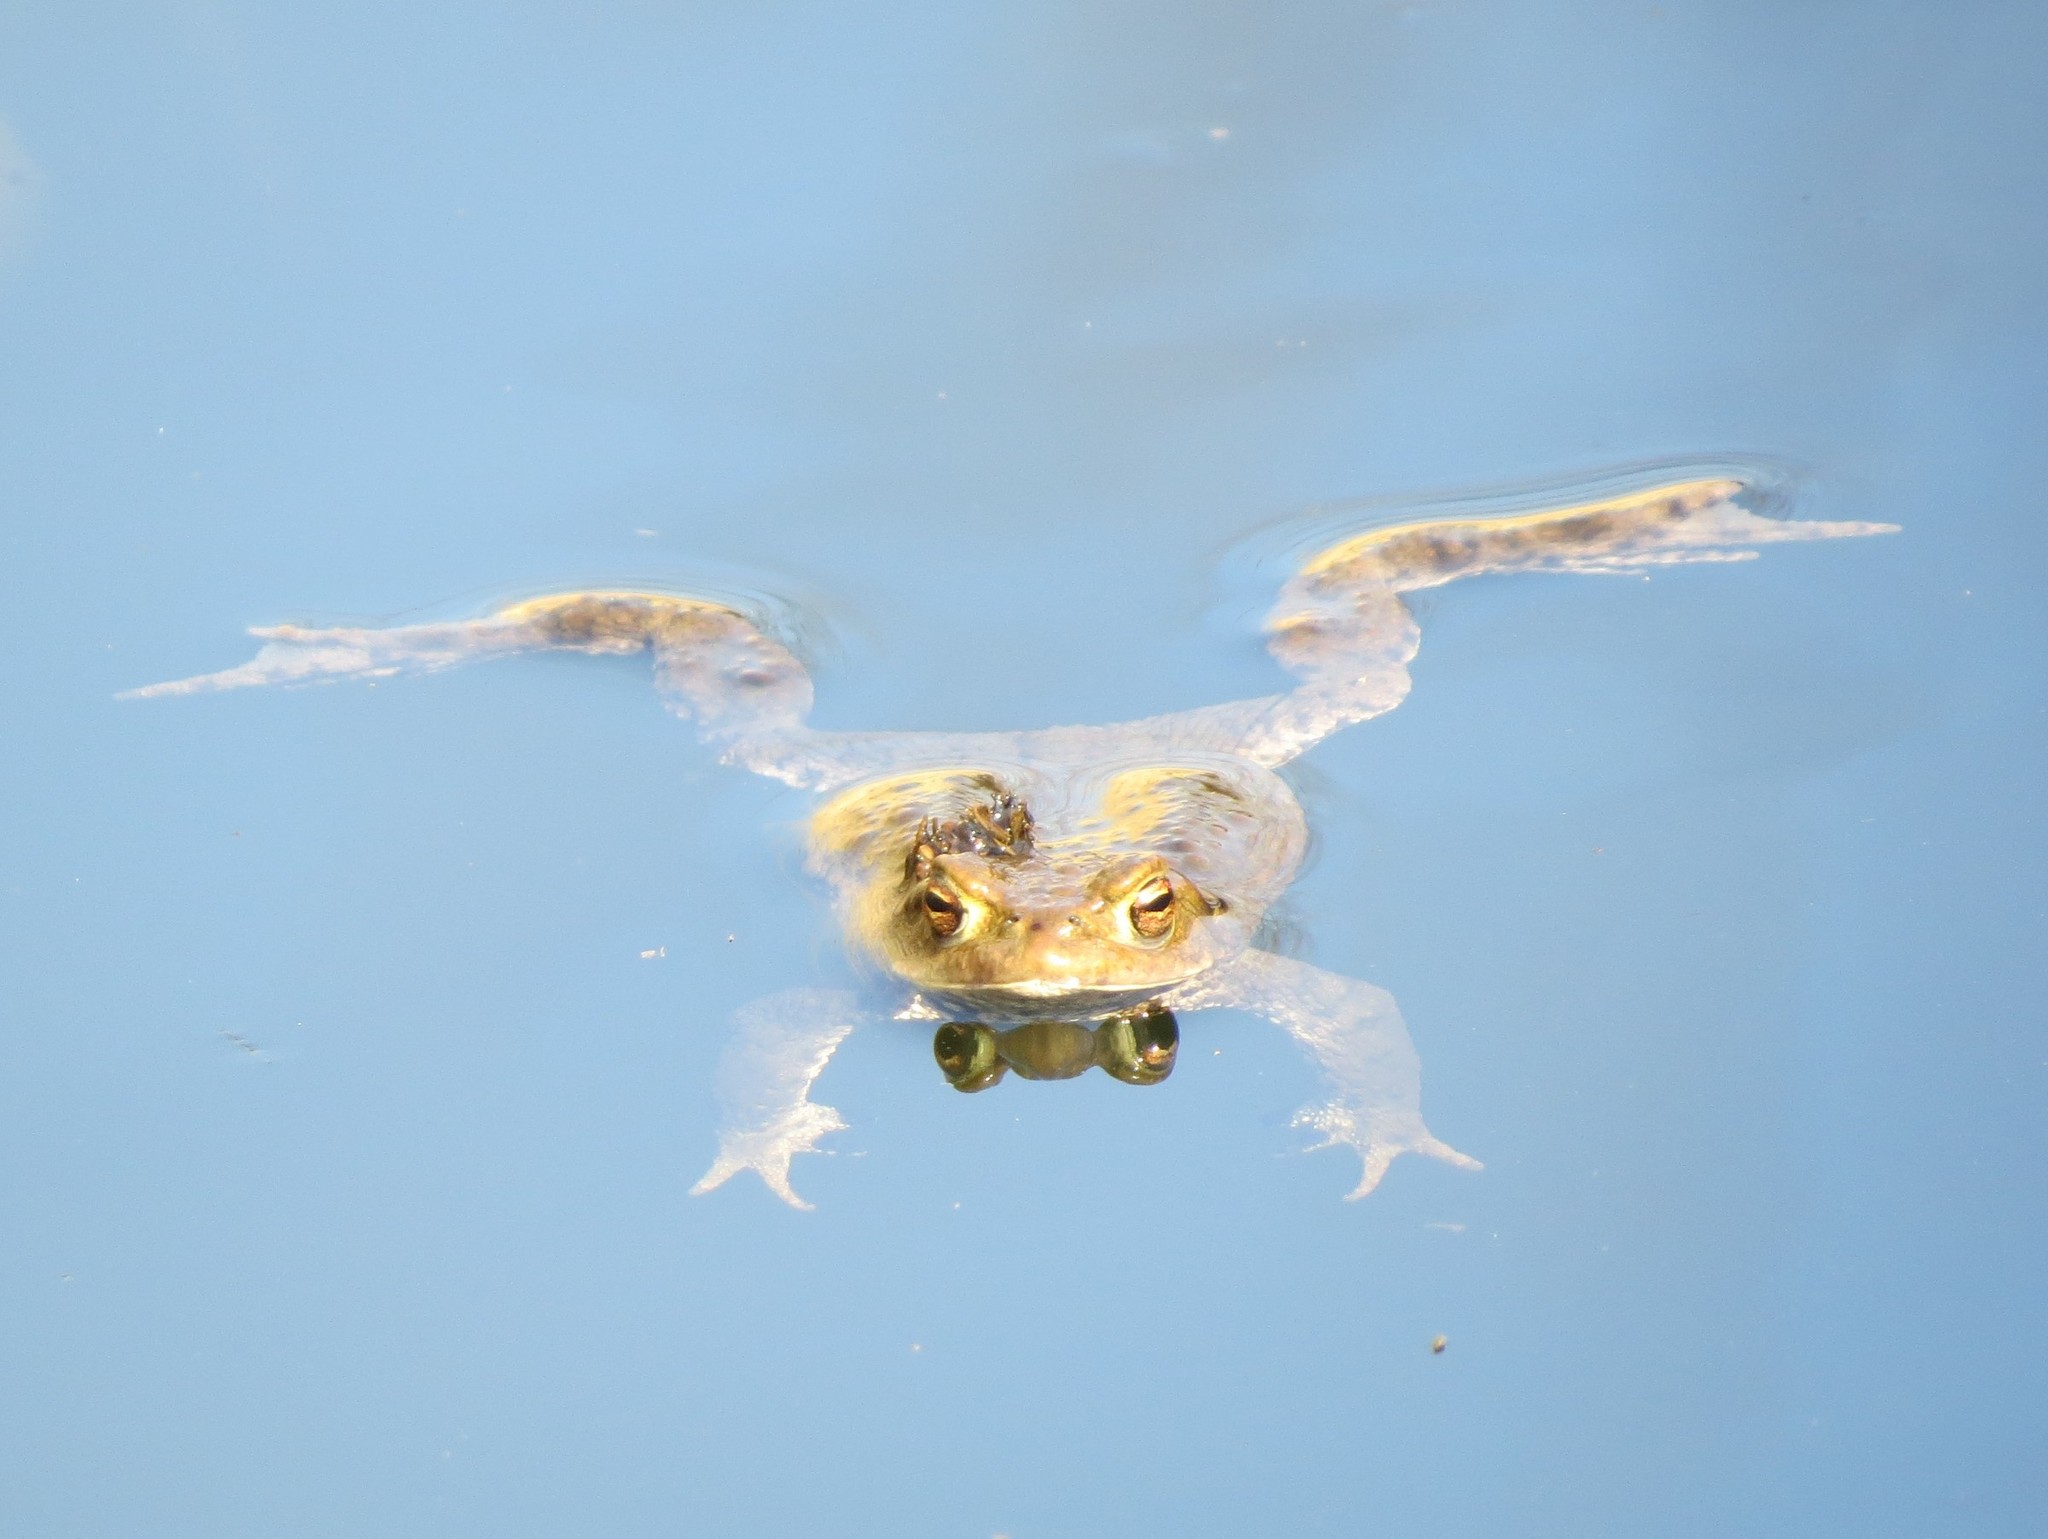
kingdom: Animalia
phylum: Chordata
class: Amphibia
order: Anura
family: Bufonidae
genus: Bufo
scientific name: Bufo bufo
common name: Common toad
